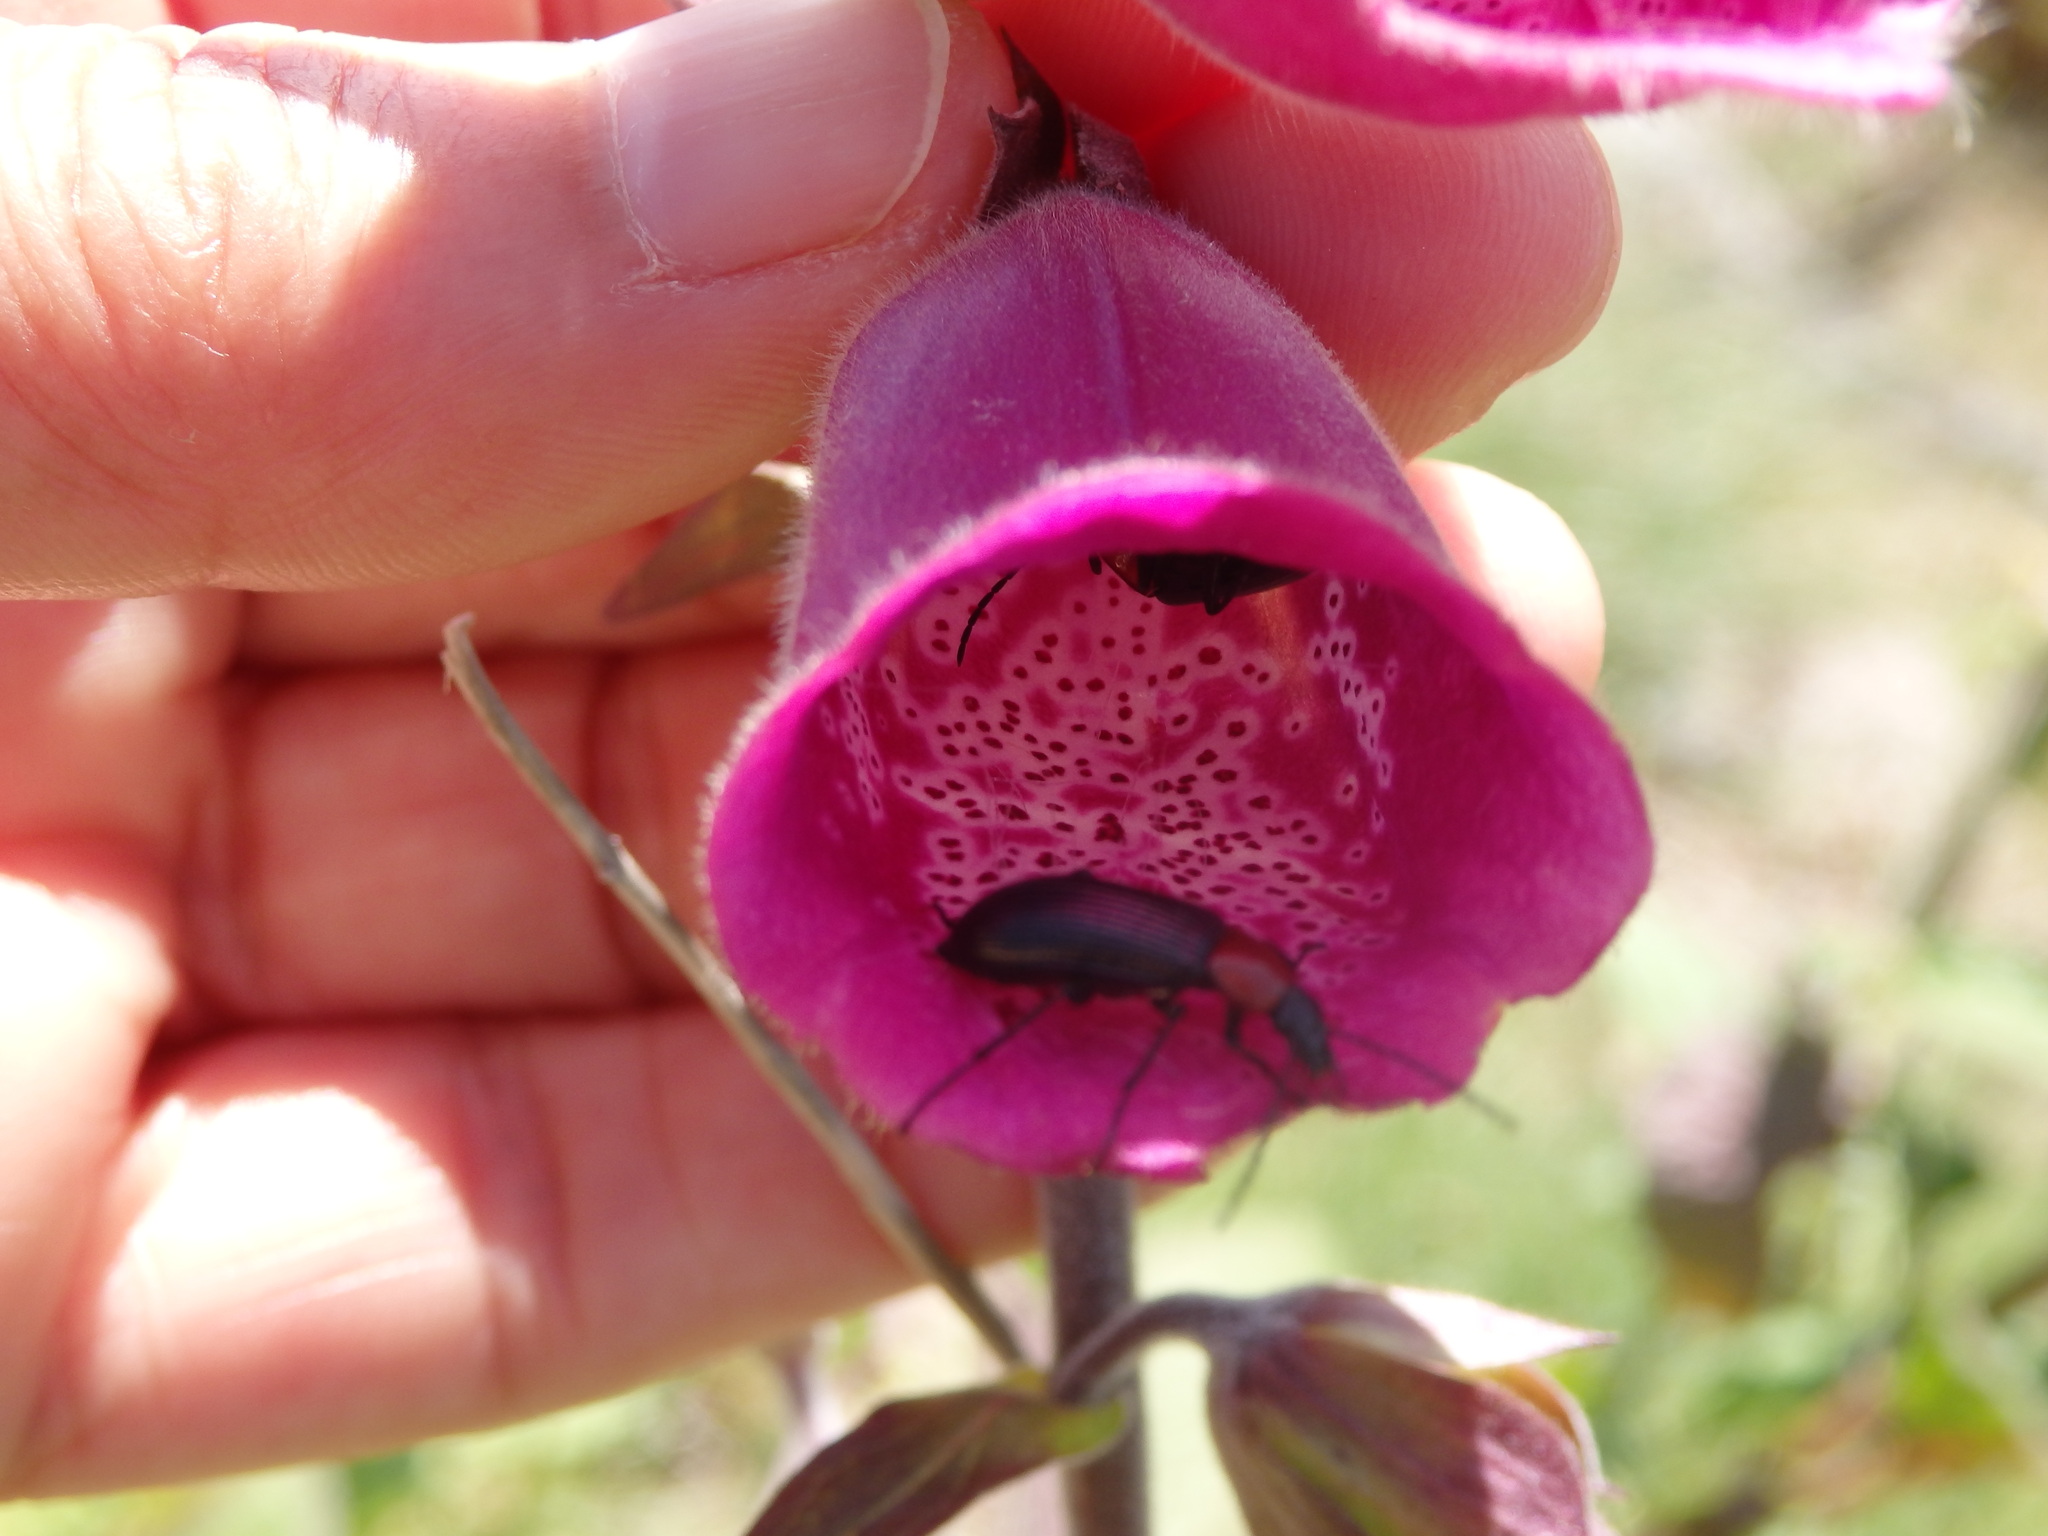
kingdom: Plantae
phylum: Tracheophyta
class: Magnoliopsida
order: Lamiales
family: Plantaginaceae
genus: Digitalis
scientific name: Digitalis thapsi
